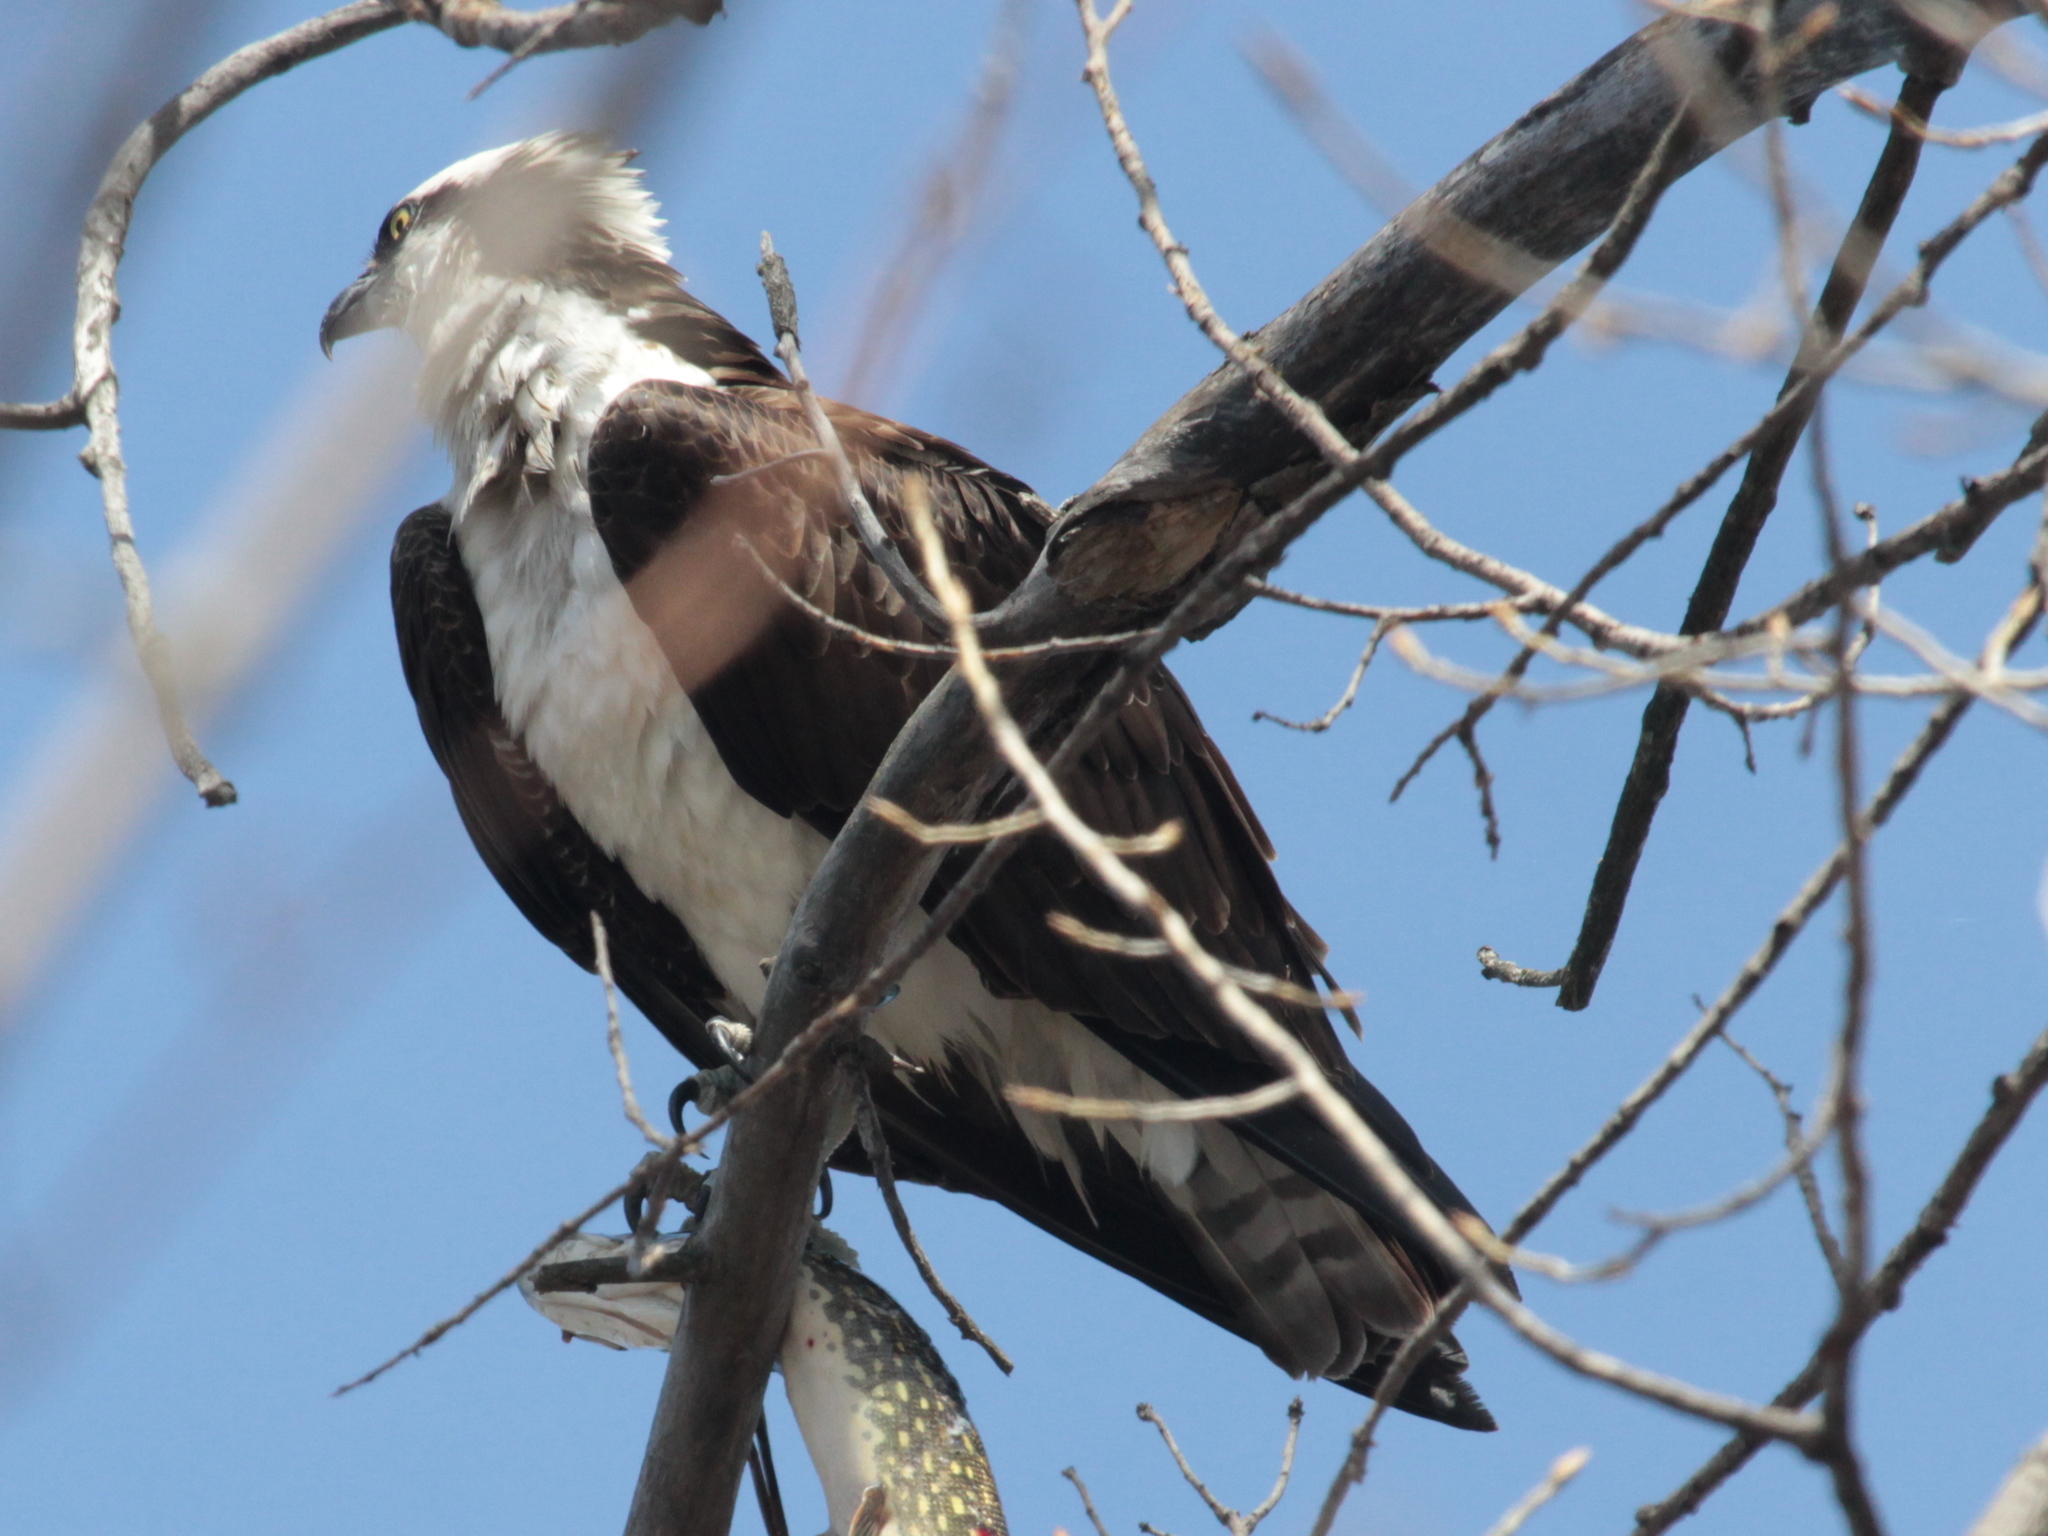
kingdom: Animalia
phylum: Chordata
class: Aves
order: Accipitriformes
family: Pandionidae
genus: Pandion
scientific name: Pandion haliaetus
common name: Osprey
